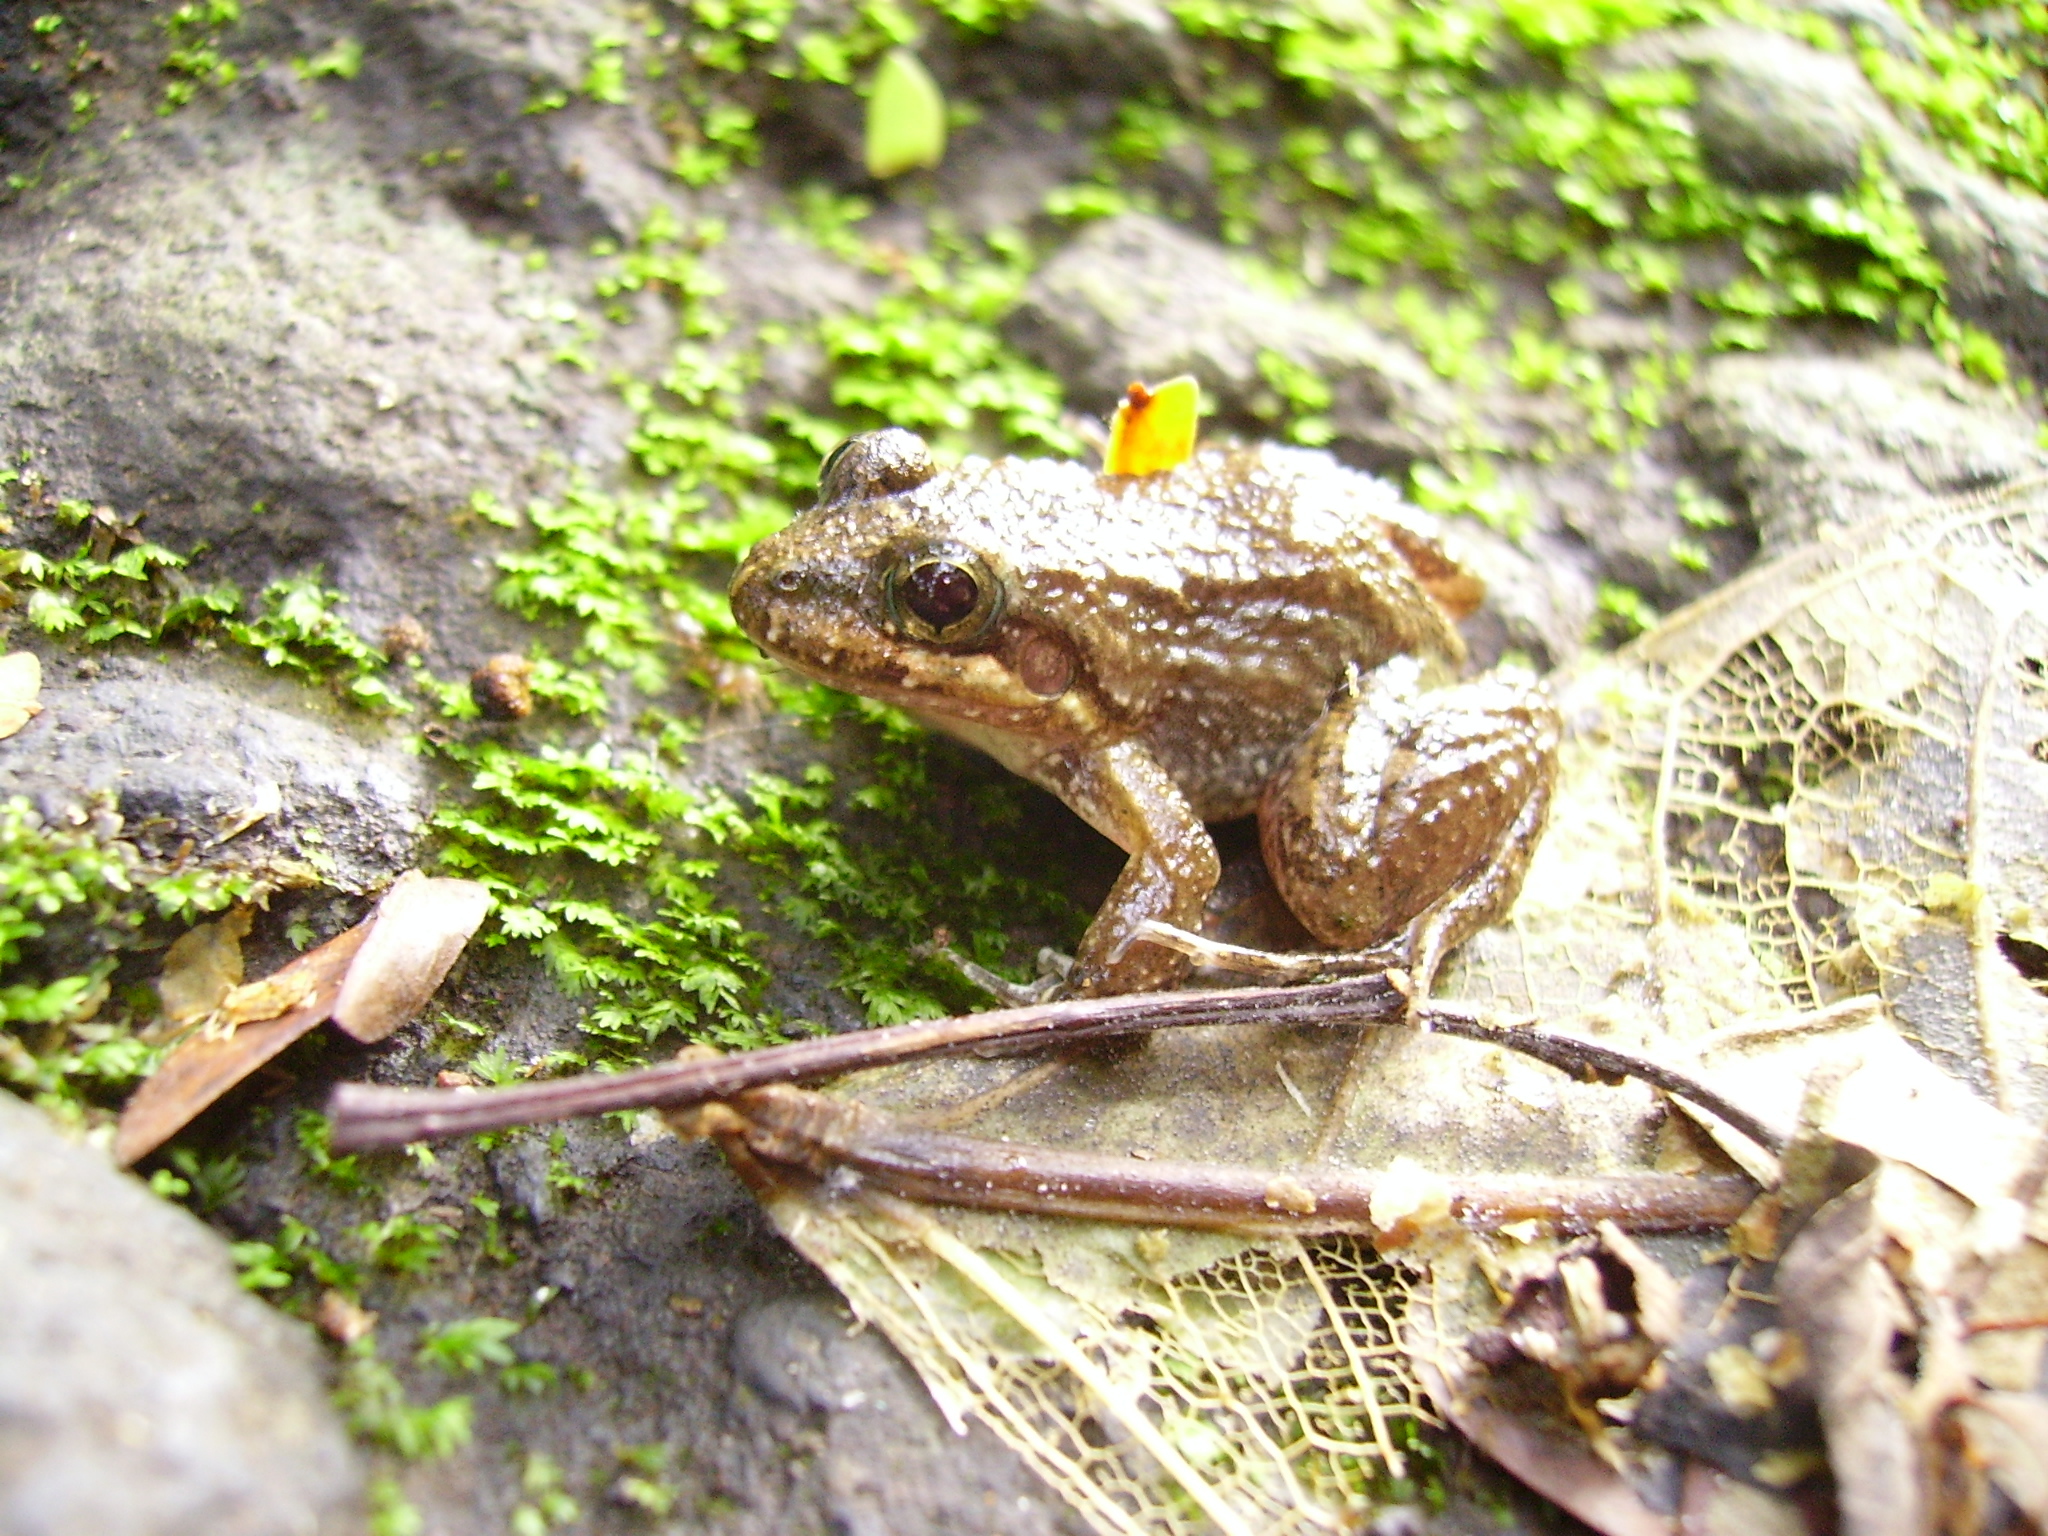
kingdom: Animalia
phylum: Chordata
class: Amphibia
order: Anura
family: Leptodactylidae
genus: Leptodactylus
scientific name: Leptodactylus melanonotus
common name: Fringe-toed foamfrog
